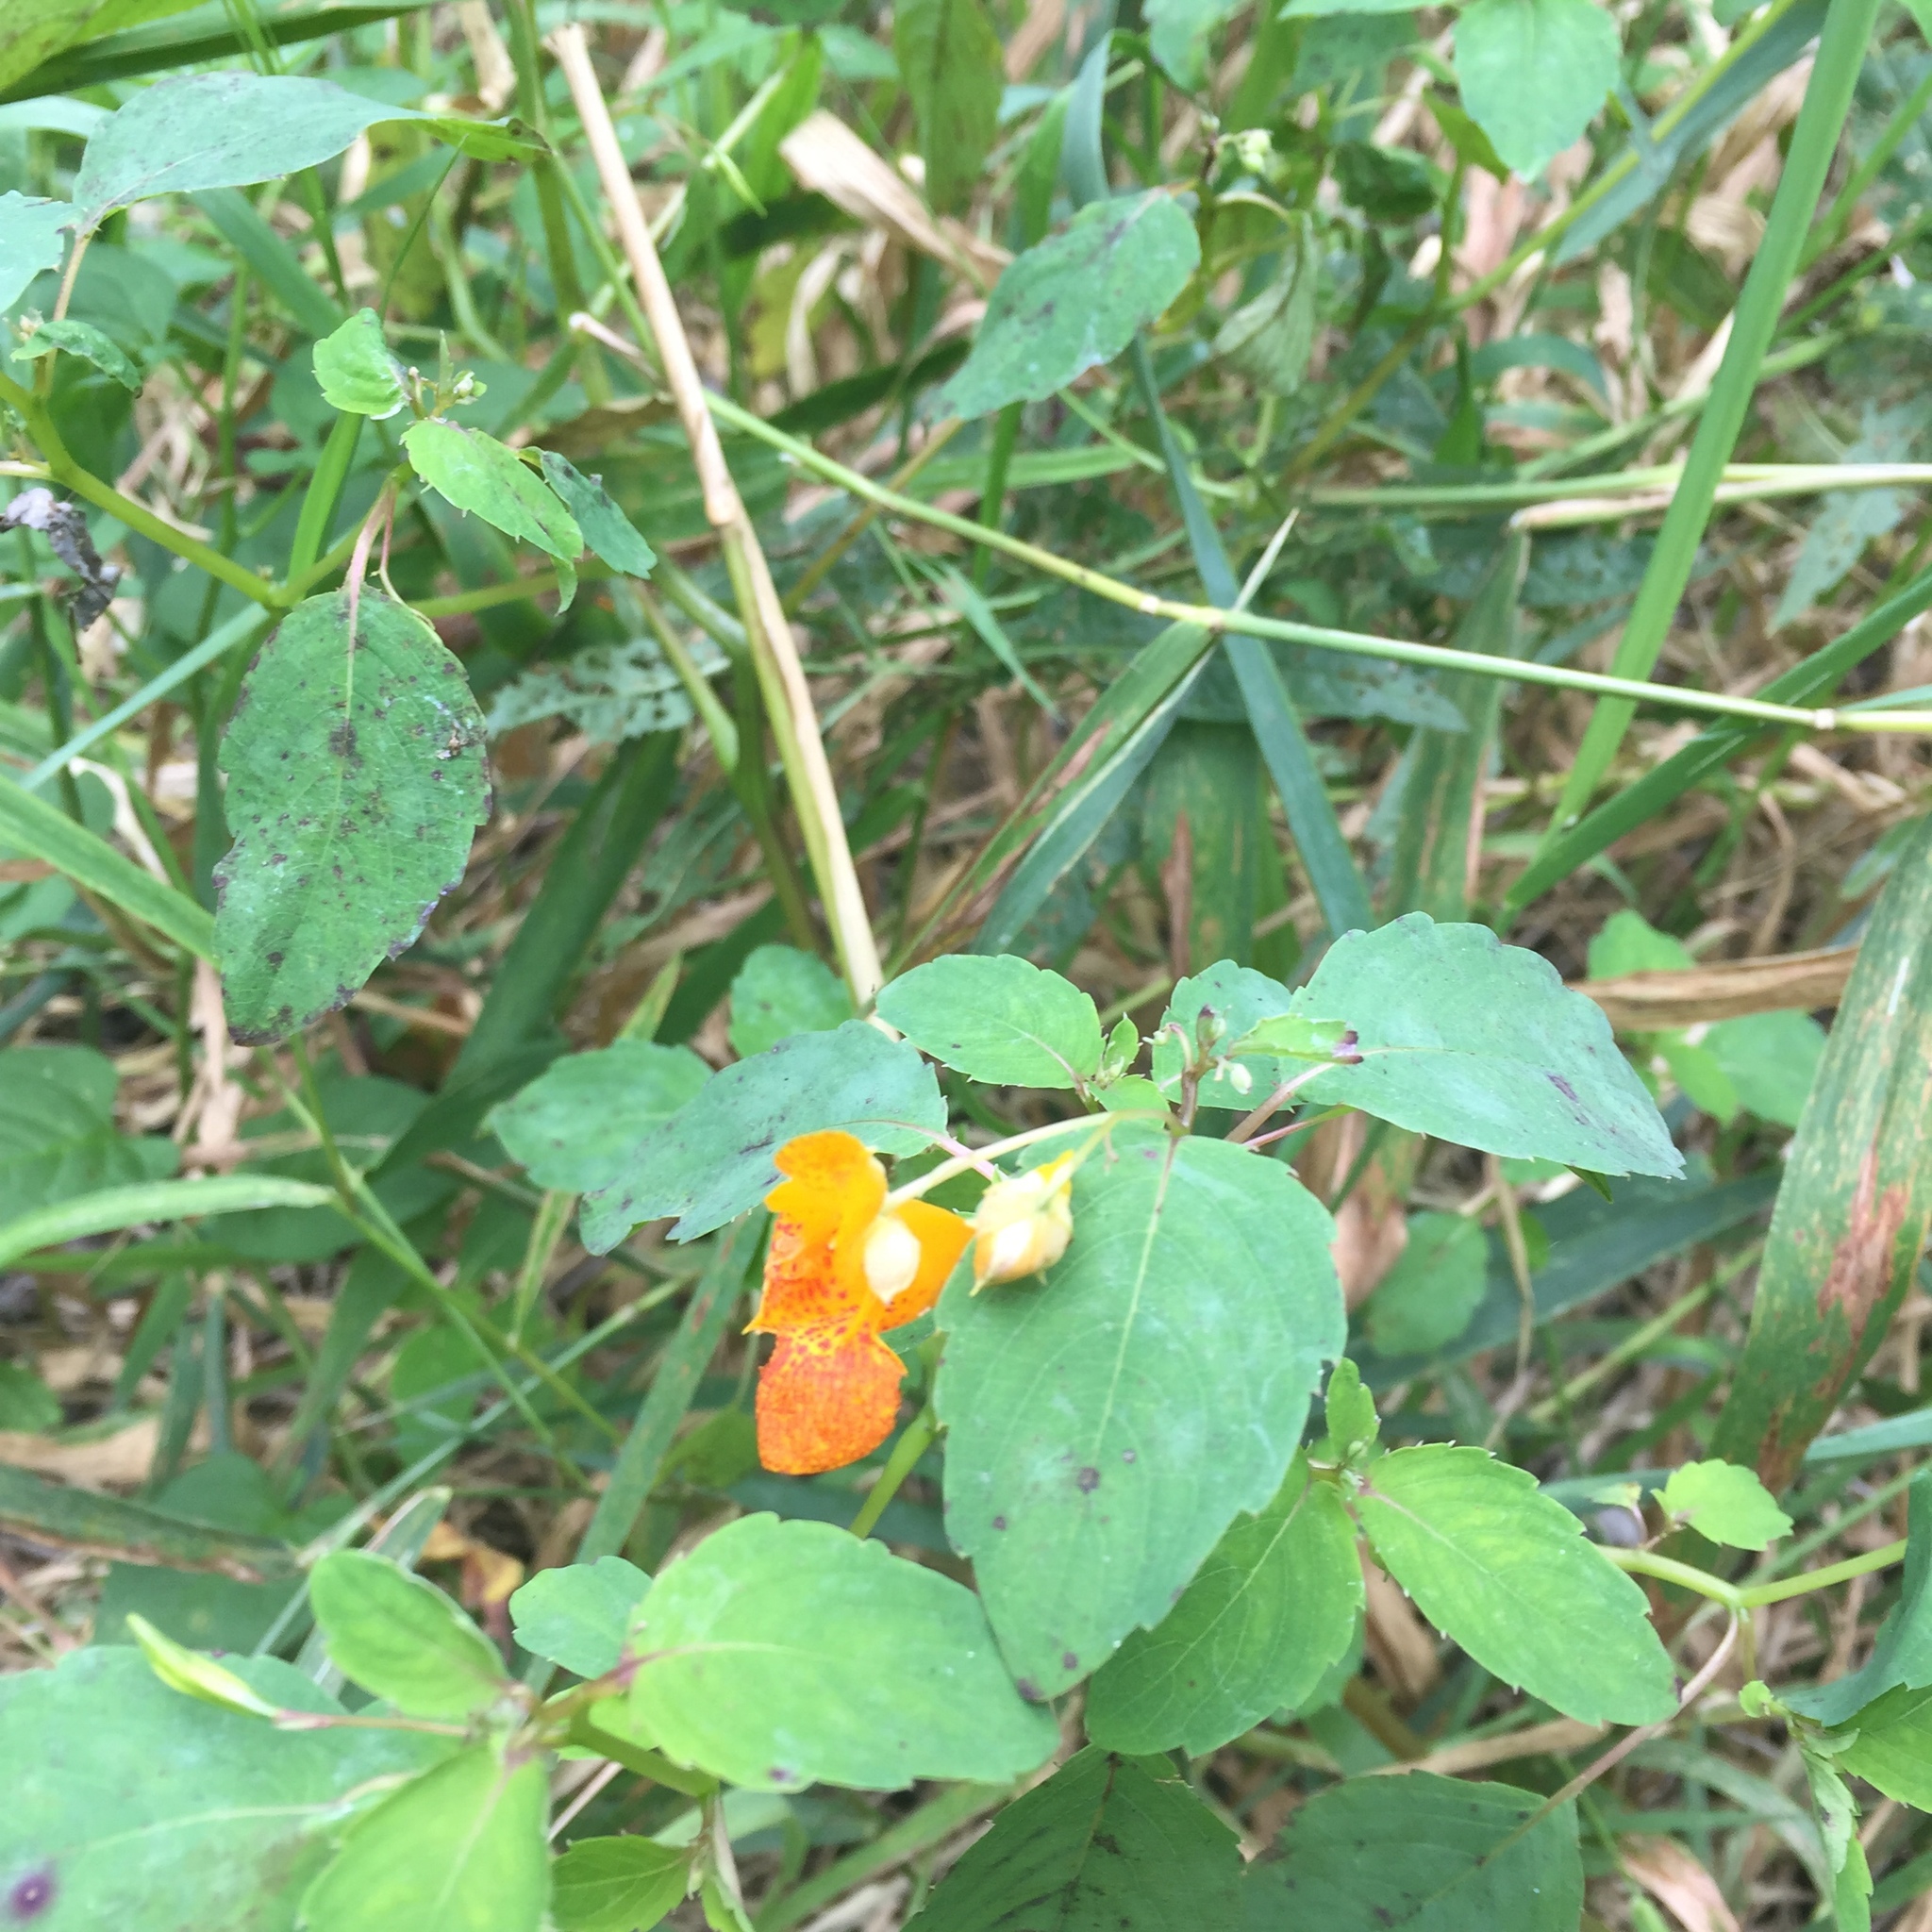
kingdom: Plantae
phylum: Tracheophyta
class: Magnoliopsida
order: Ericales
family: Balsaminaceae
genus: Impatiens
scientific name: Impatiens capensis
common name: Orange balsam
